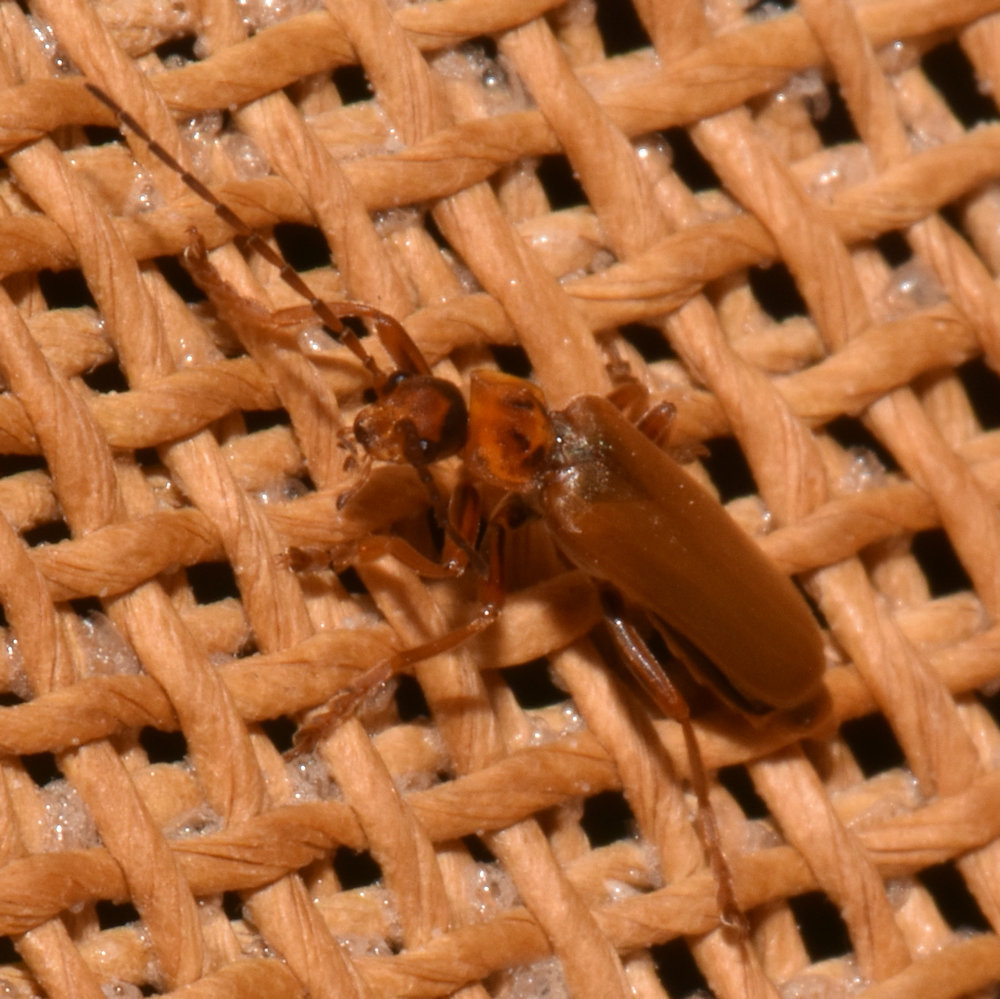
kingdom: Animalia
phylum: Arthropoda
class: Insecta
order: Coleoptera
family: Cantharidae
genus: Cantharis
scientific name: Cantharis rufa
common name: Red-spotted soldier beetle
